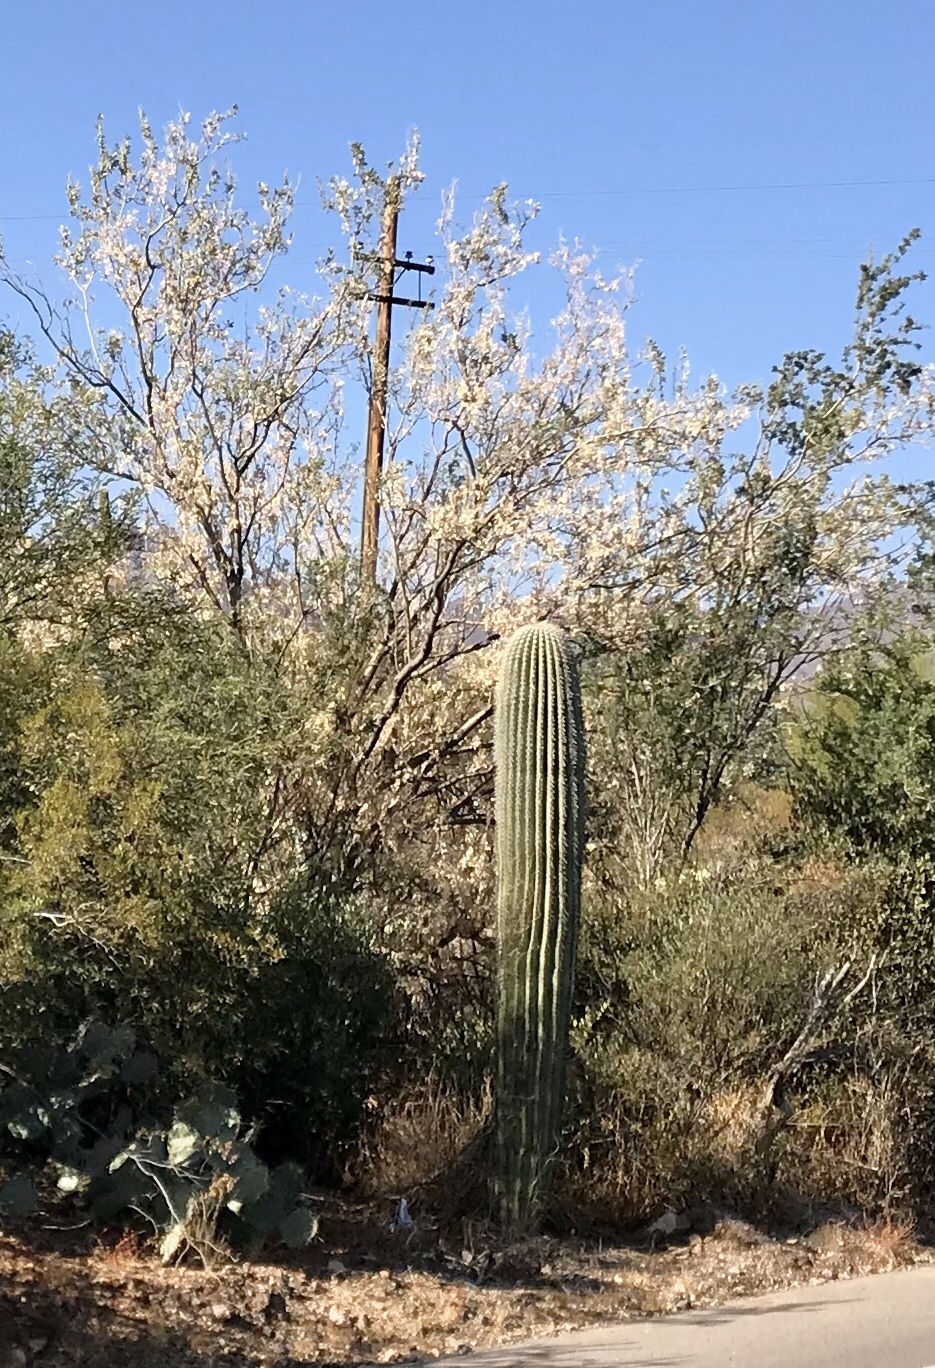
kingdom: Plantae
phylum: Tracheophyta
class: Magnoliopsida
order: Caryophyllales
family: Cactaceae
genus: Carnegiea
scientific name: Carnegiea gigantea
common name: Saguaro
